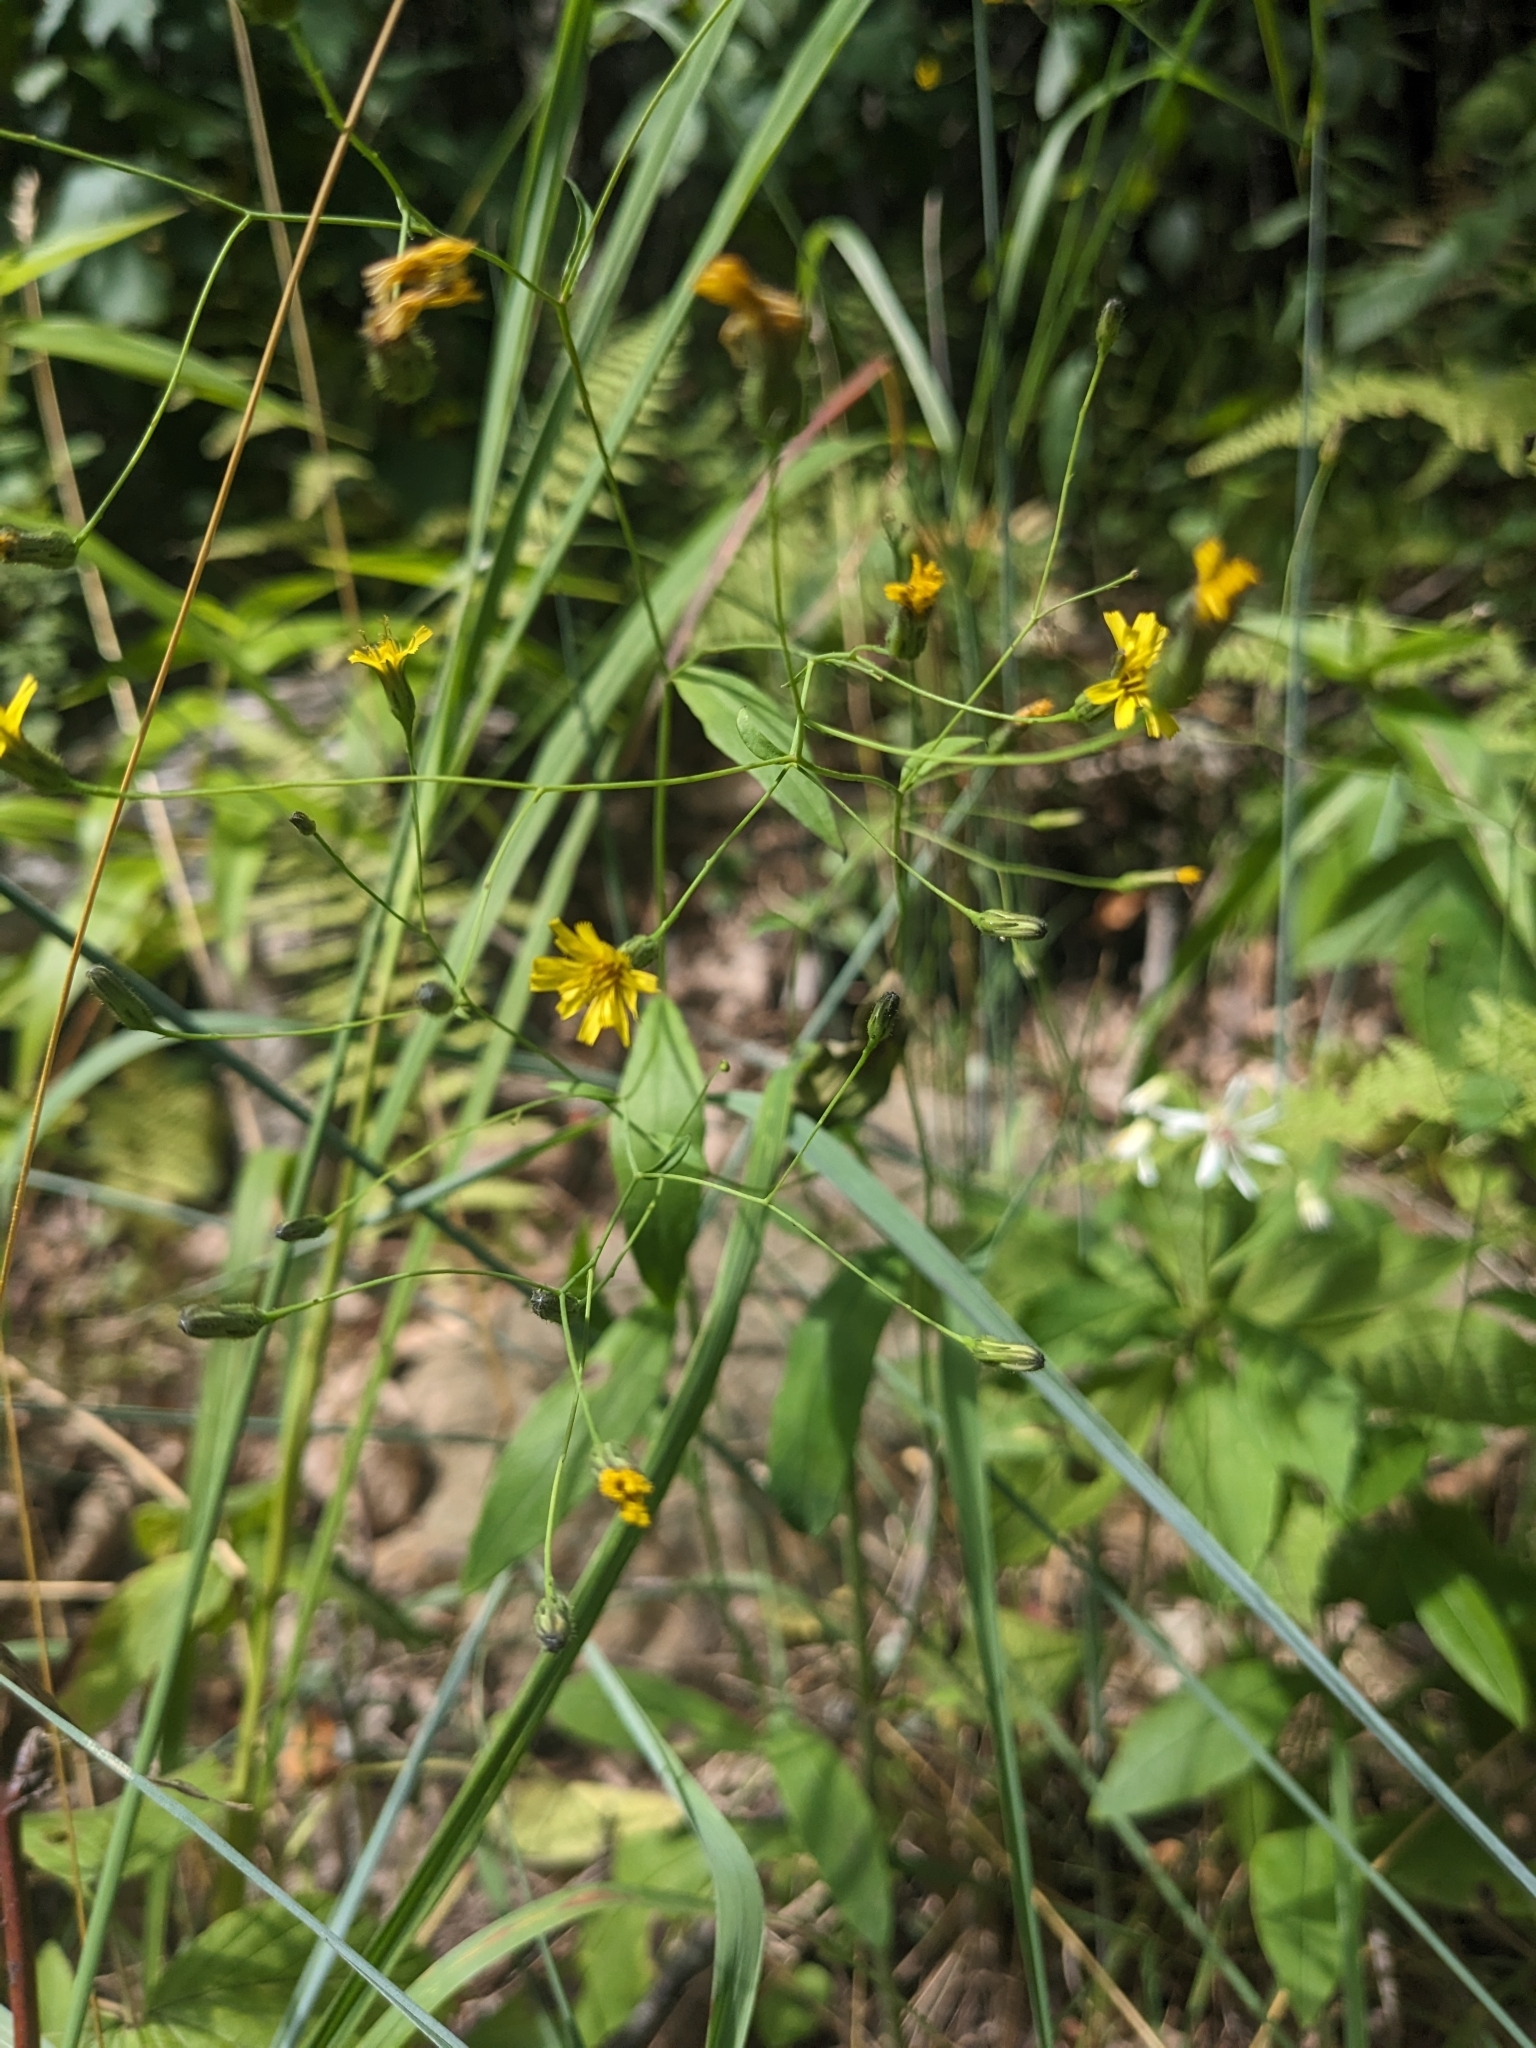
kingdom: Plantae
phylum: Tracheophyta
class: Magnoliopsida
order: Asterales
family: Asteraceae
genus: Hieracium
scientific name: Hieracium paniculatum
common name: Allegheny hawkweed
